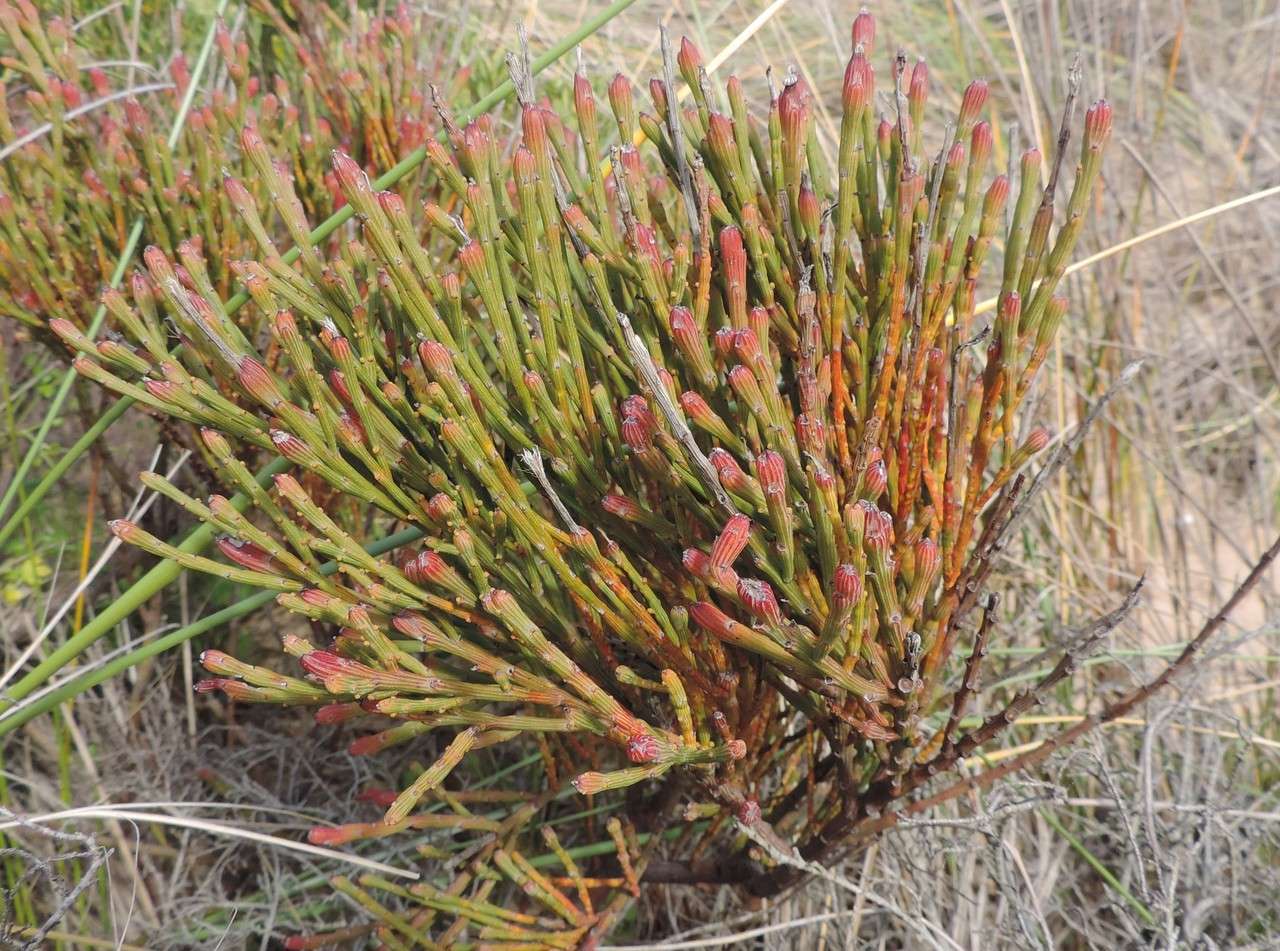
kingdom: Plantae
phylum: Tracheophyta
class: Magnoliopsida
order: Santalales
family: Santalaceae
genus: Exocarpos
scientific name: Exocarpos syrticola
